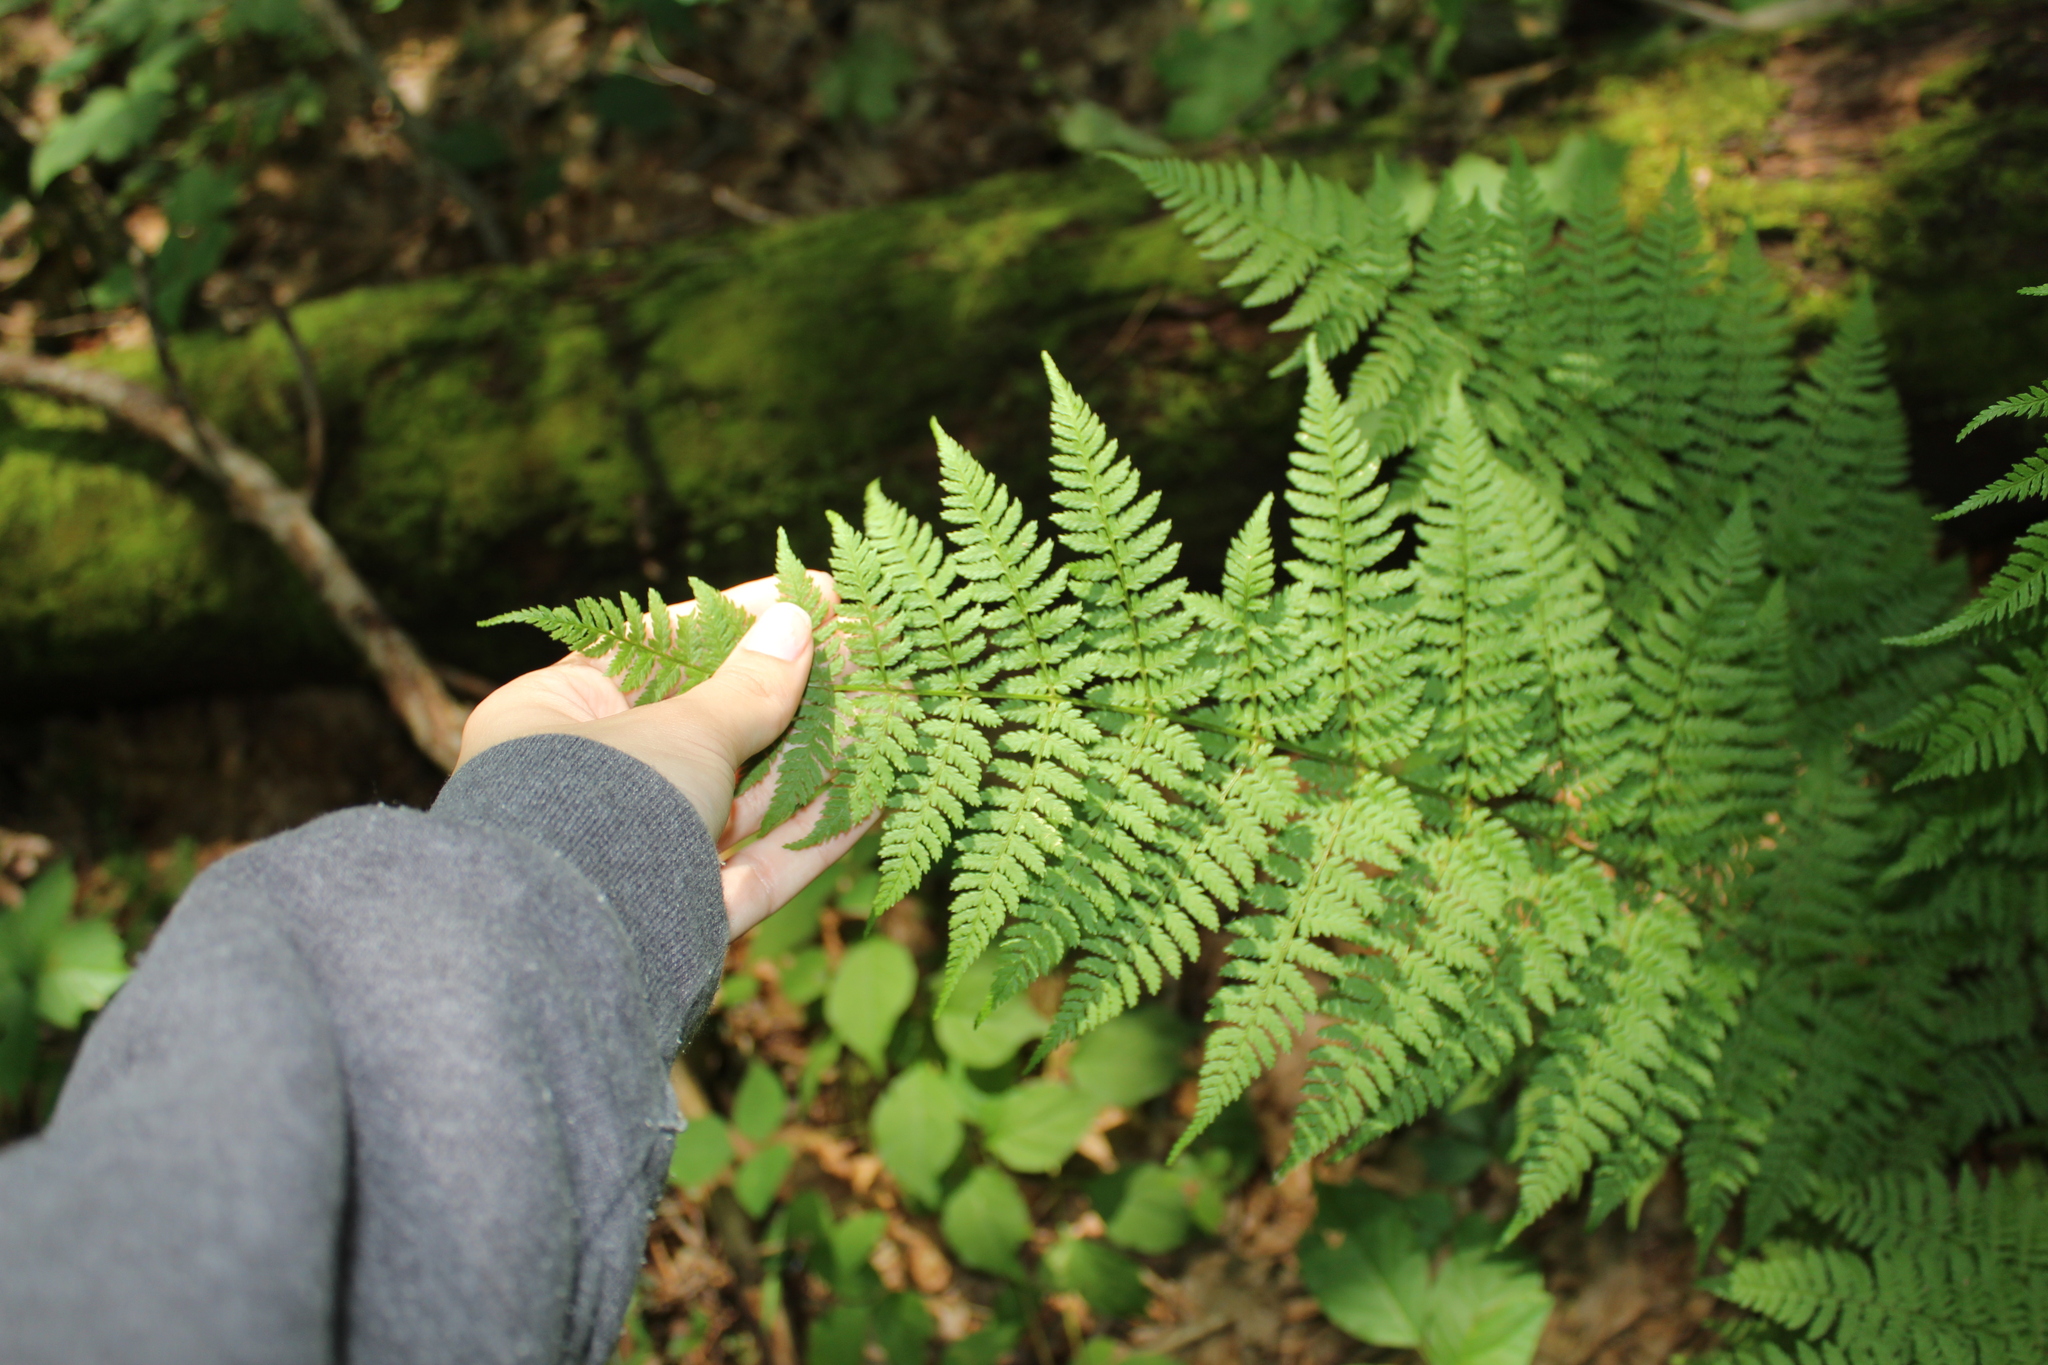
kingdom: Plantae
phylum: Tracheophyta
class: Polypodiopsida
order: Polypodiales
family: Dryopteridaceae
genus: Dryopteris
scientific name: Dryopteris intermedia
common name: Evergreen wood fern
